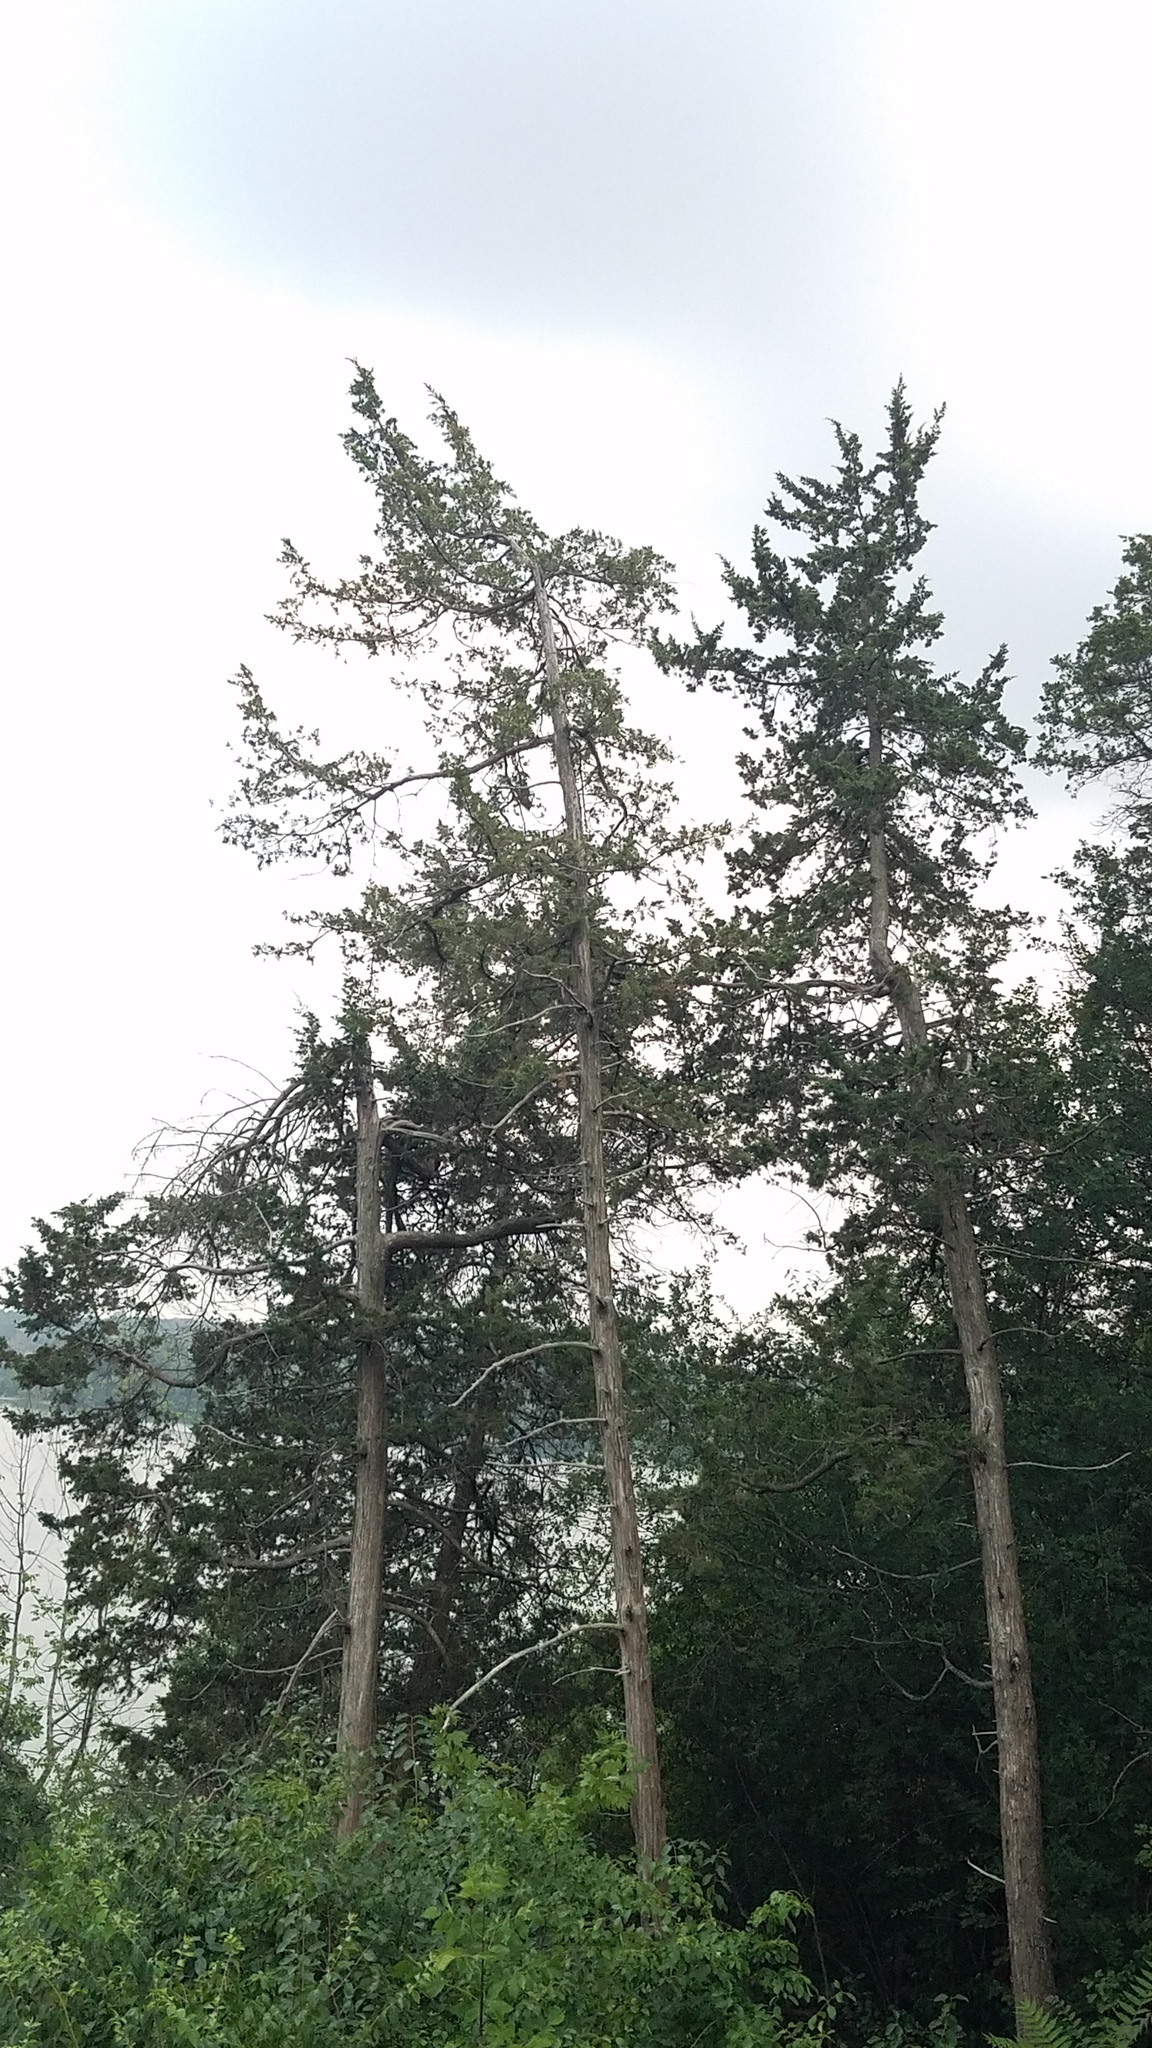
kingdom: Plantae
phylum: Tracheophyta
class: Pinopsida
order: Pinales
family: Cupressaceae
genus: Juniperus
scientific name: Juniperus virginiana
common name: Red juniper
